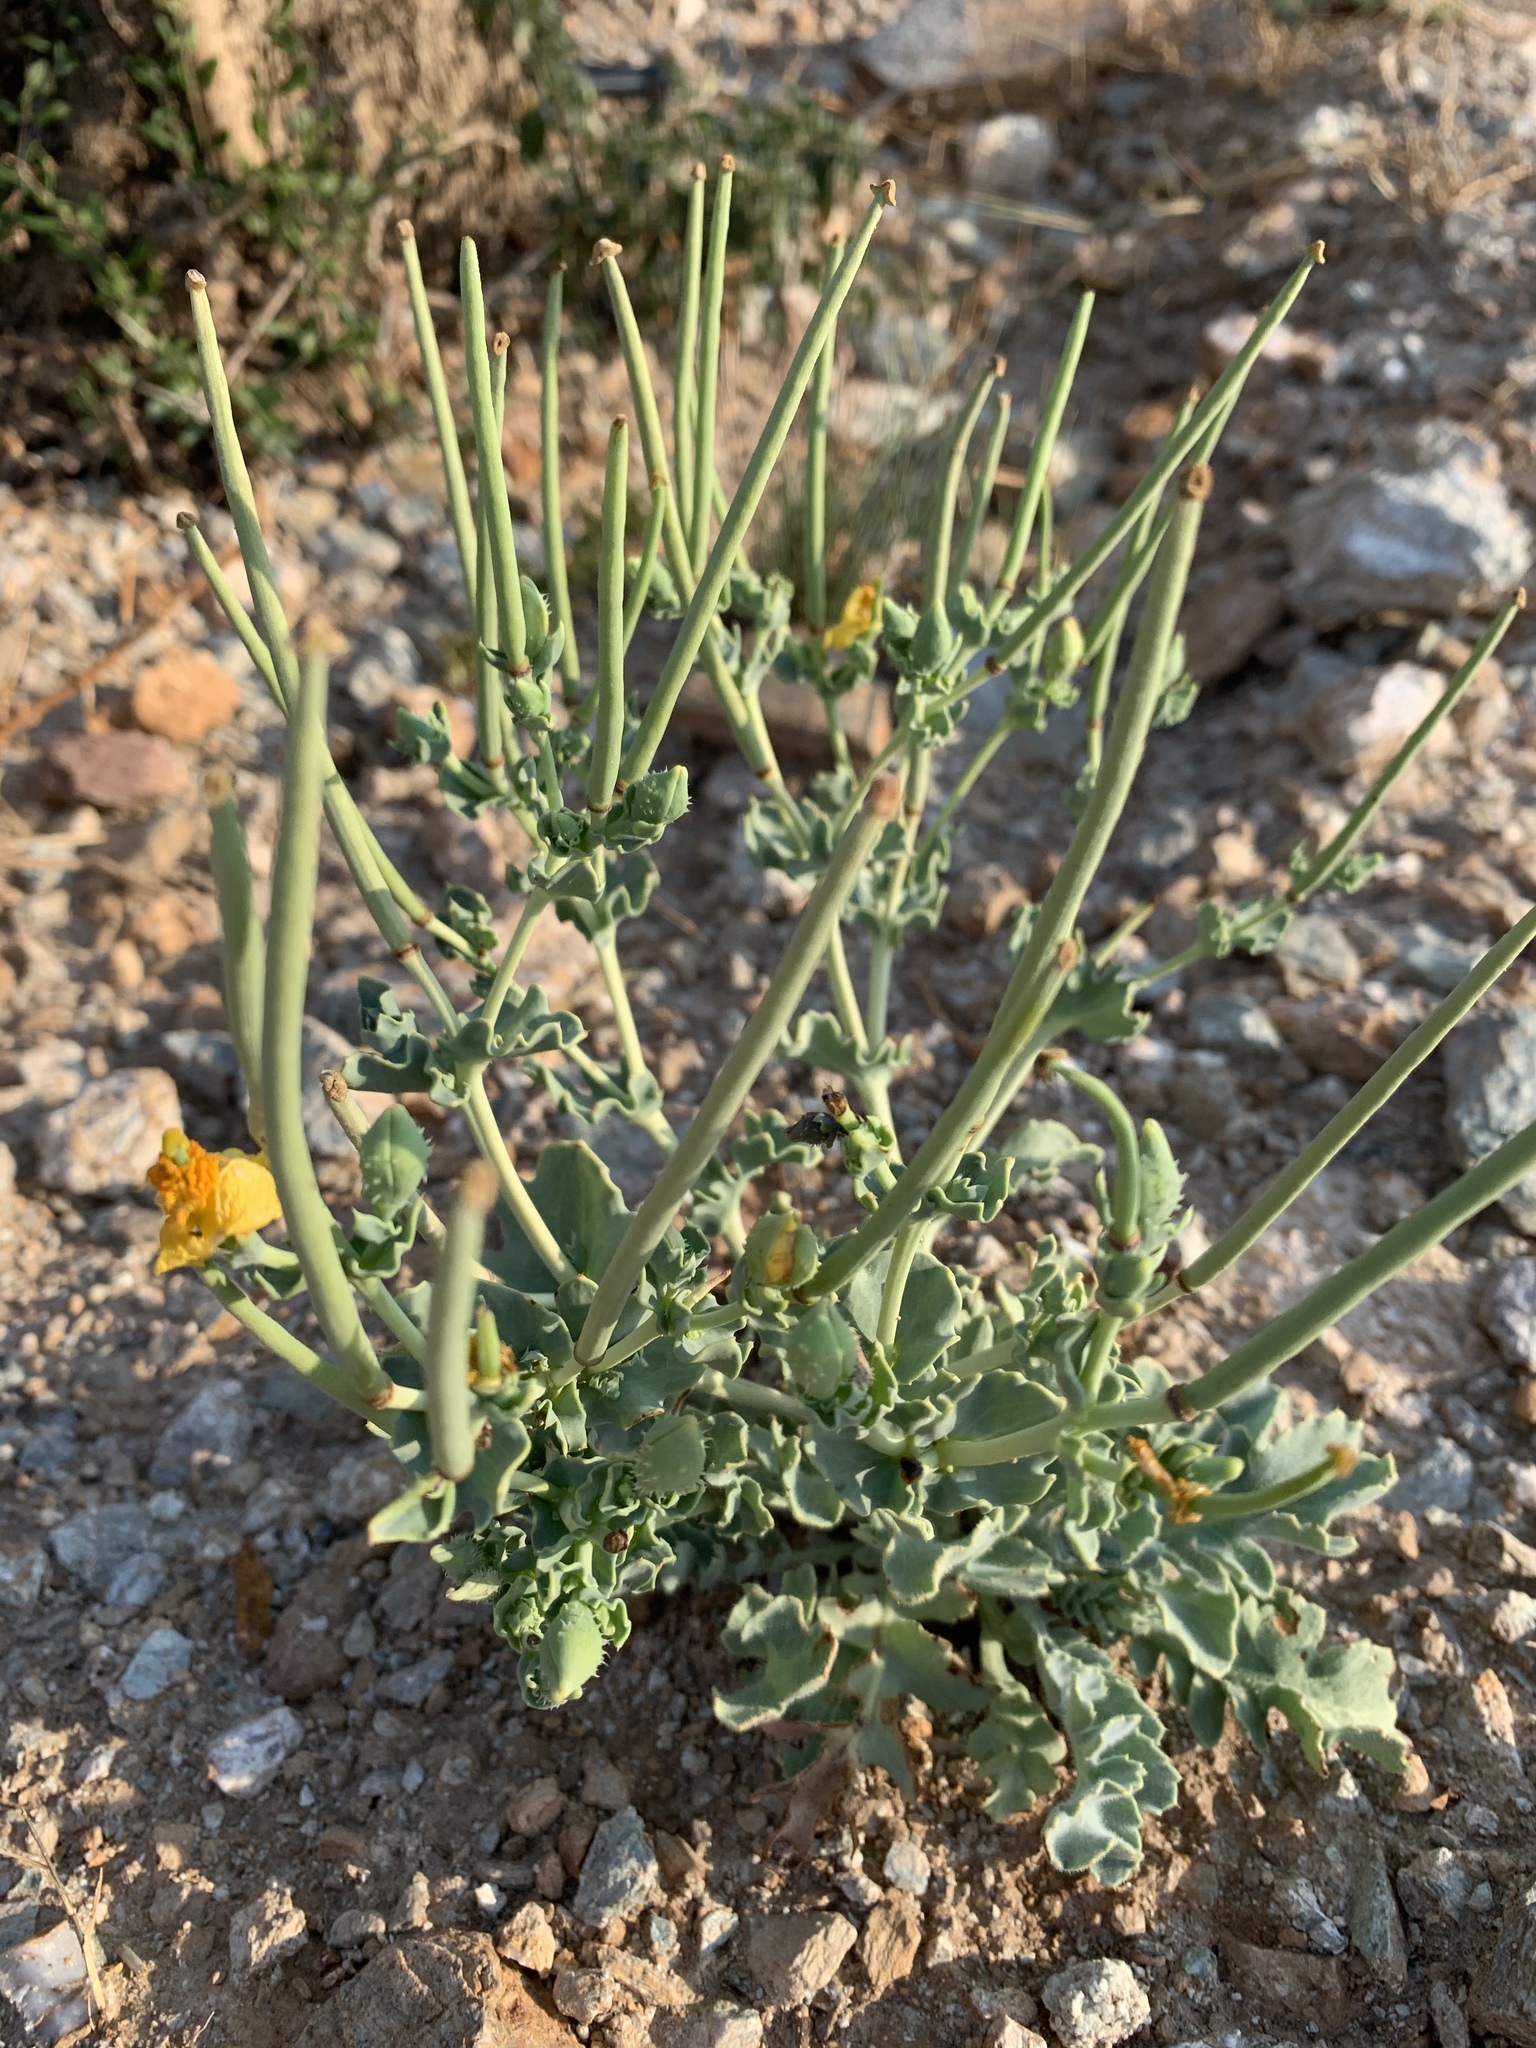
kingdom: Plantae
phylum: Tracheophyta
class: Magnoliopsida
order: Ranunculales
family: Papaveraceae
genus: Glaucium
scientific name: Glaucium flavum
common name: Yellow horned-poppy
